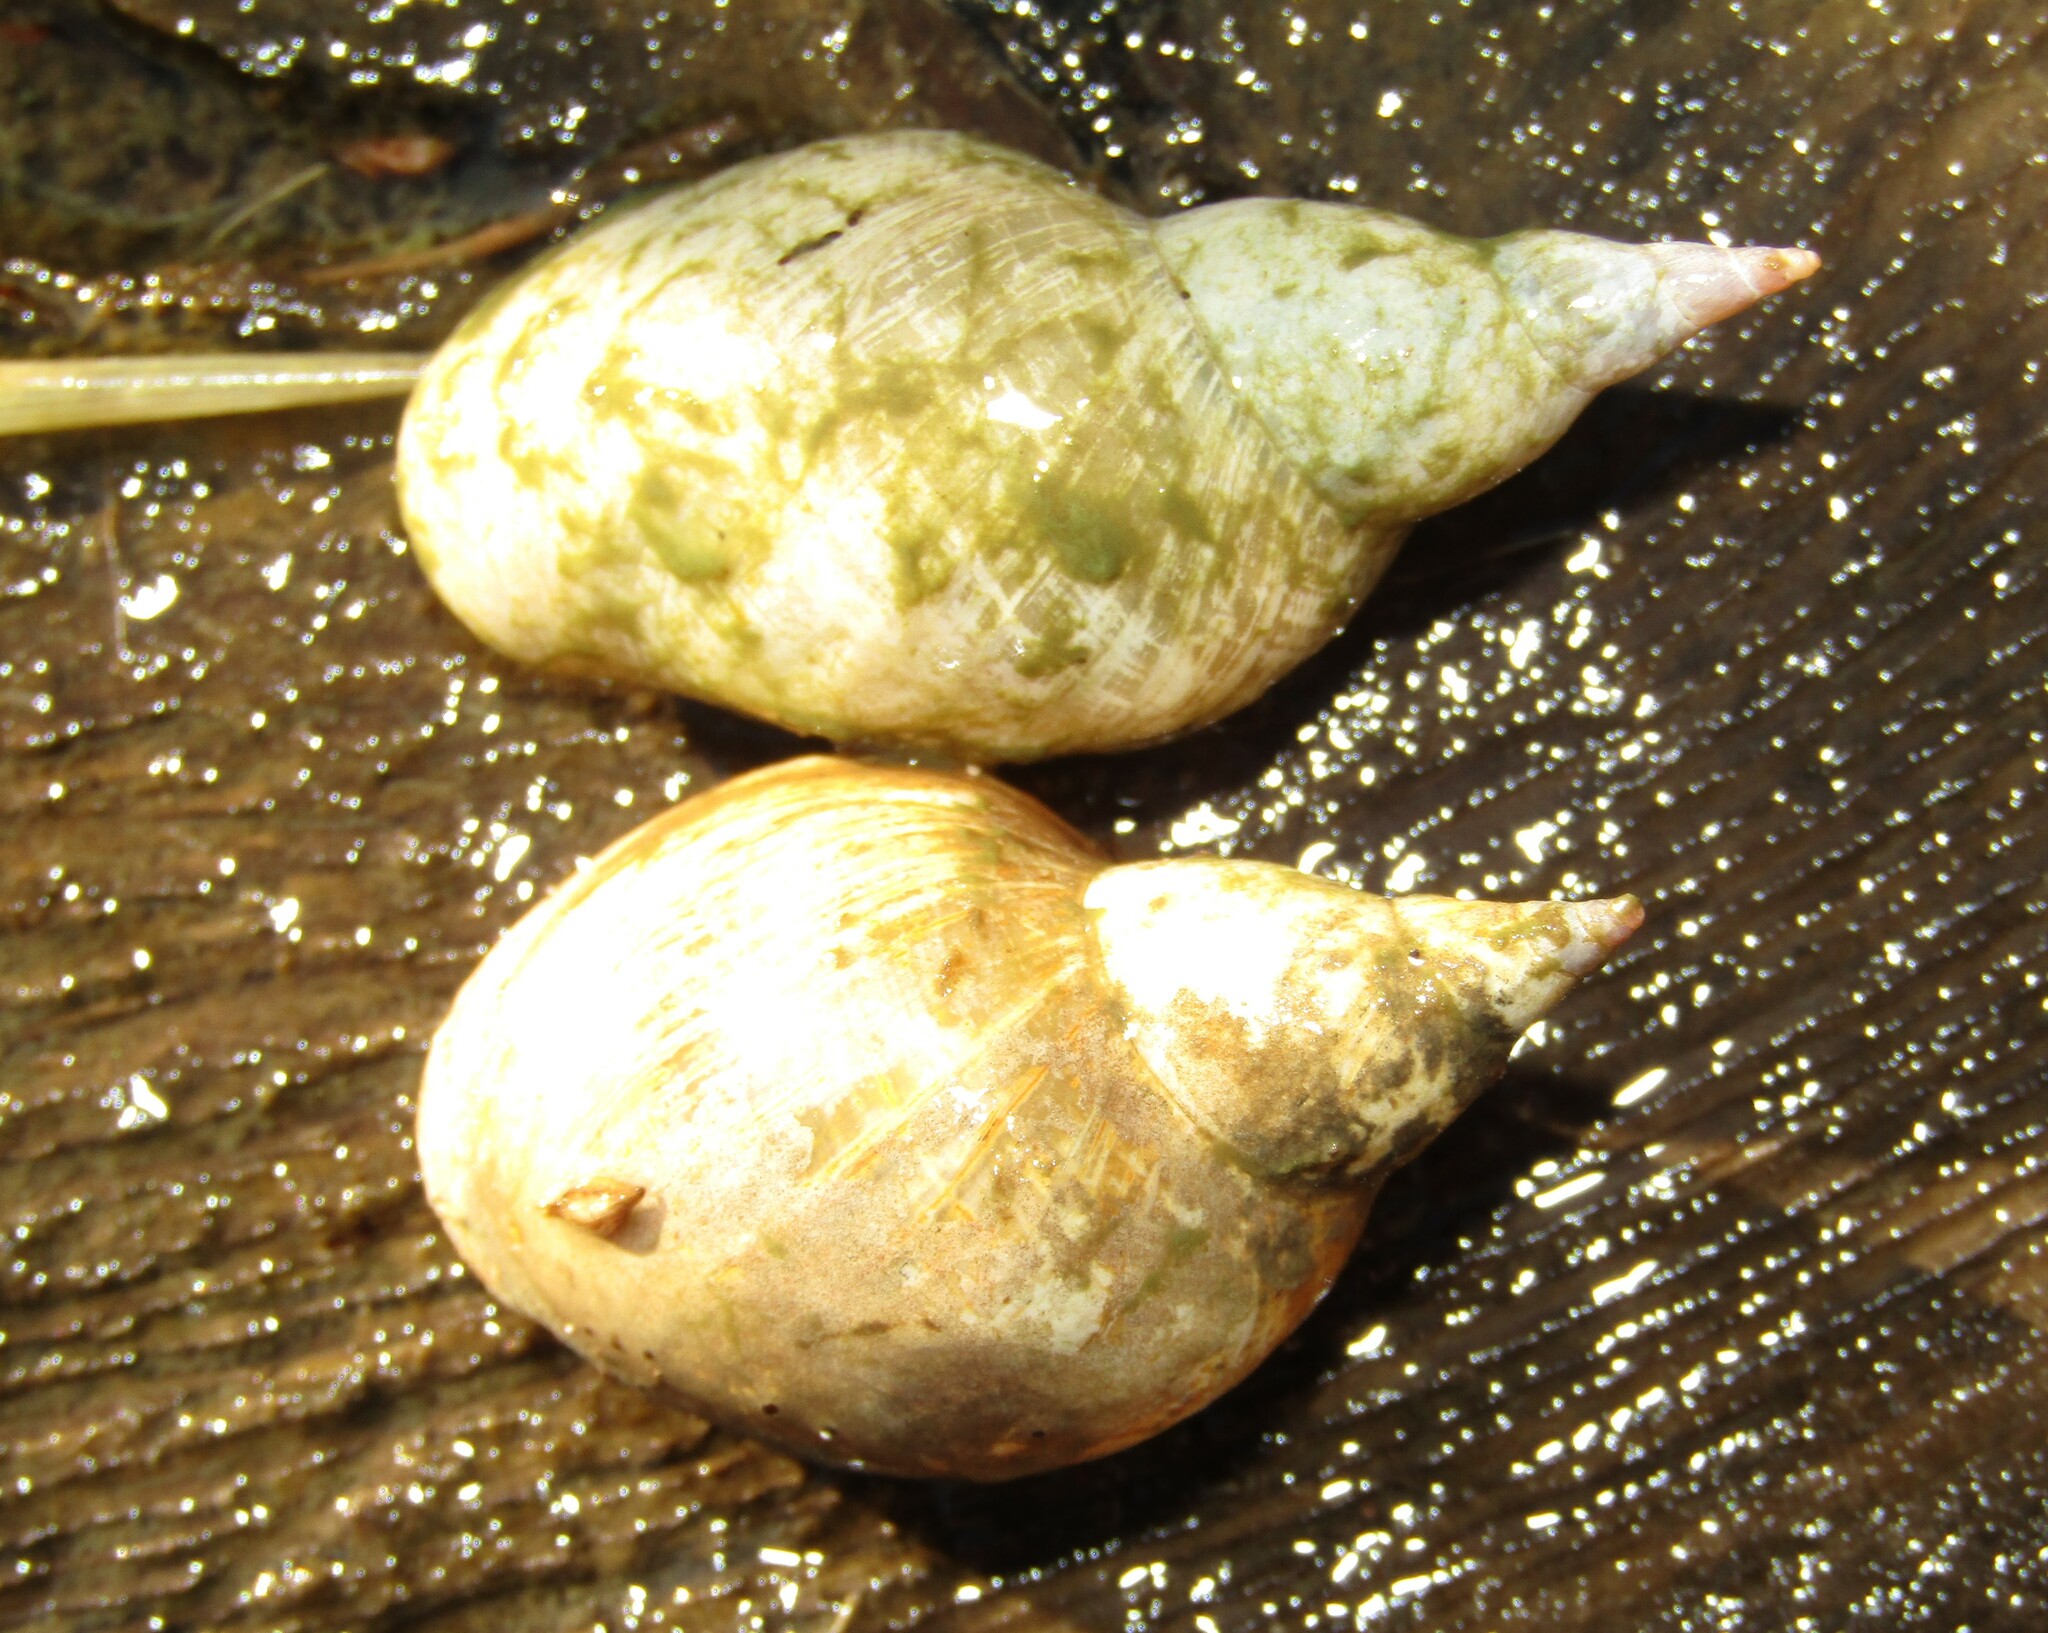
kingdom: Animalia
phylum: Mollusca
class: Gastropoda
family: Lymnaeidae
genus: Lymnaea
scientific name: Lymnaea stagnalis
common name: Great pond snail
